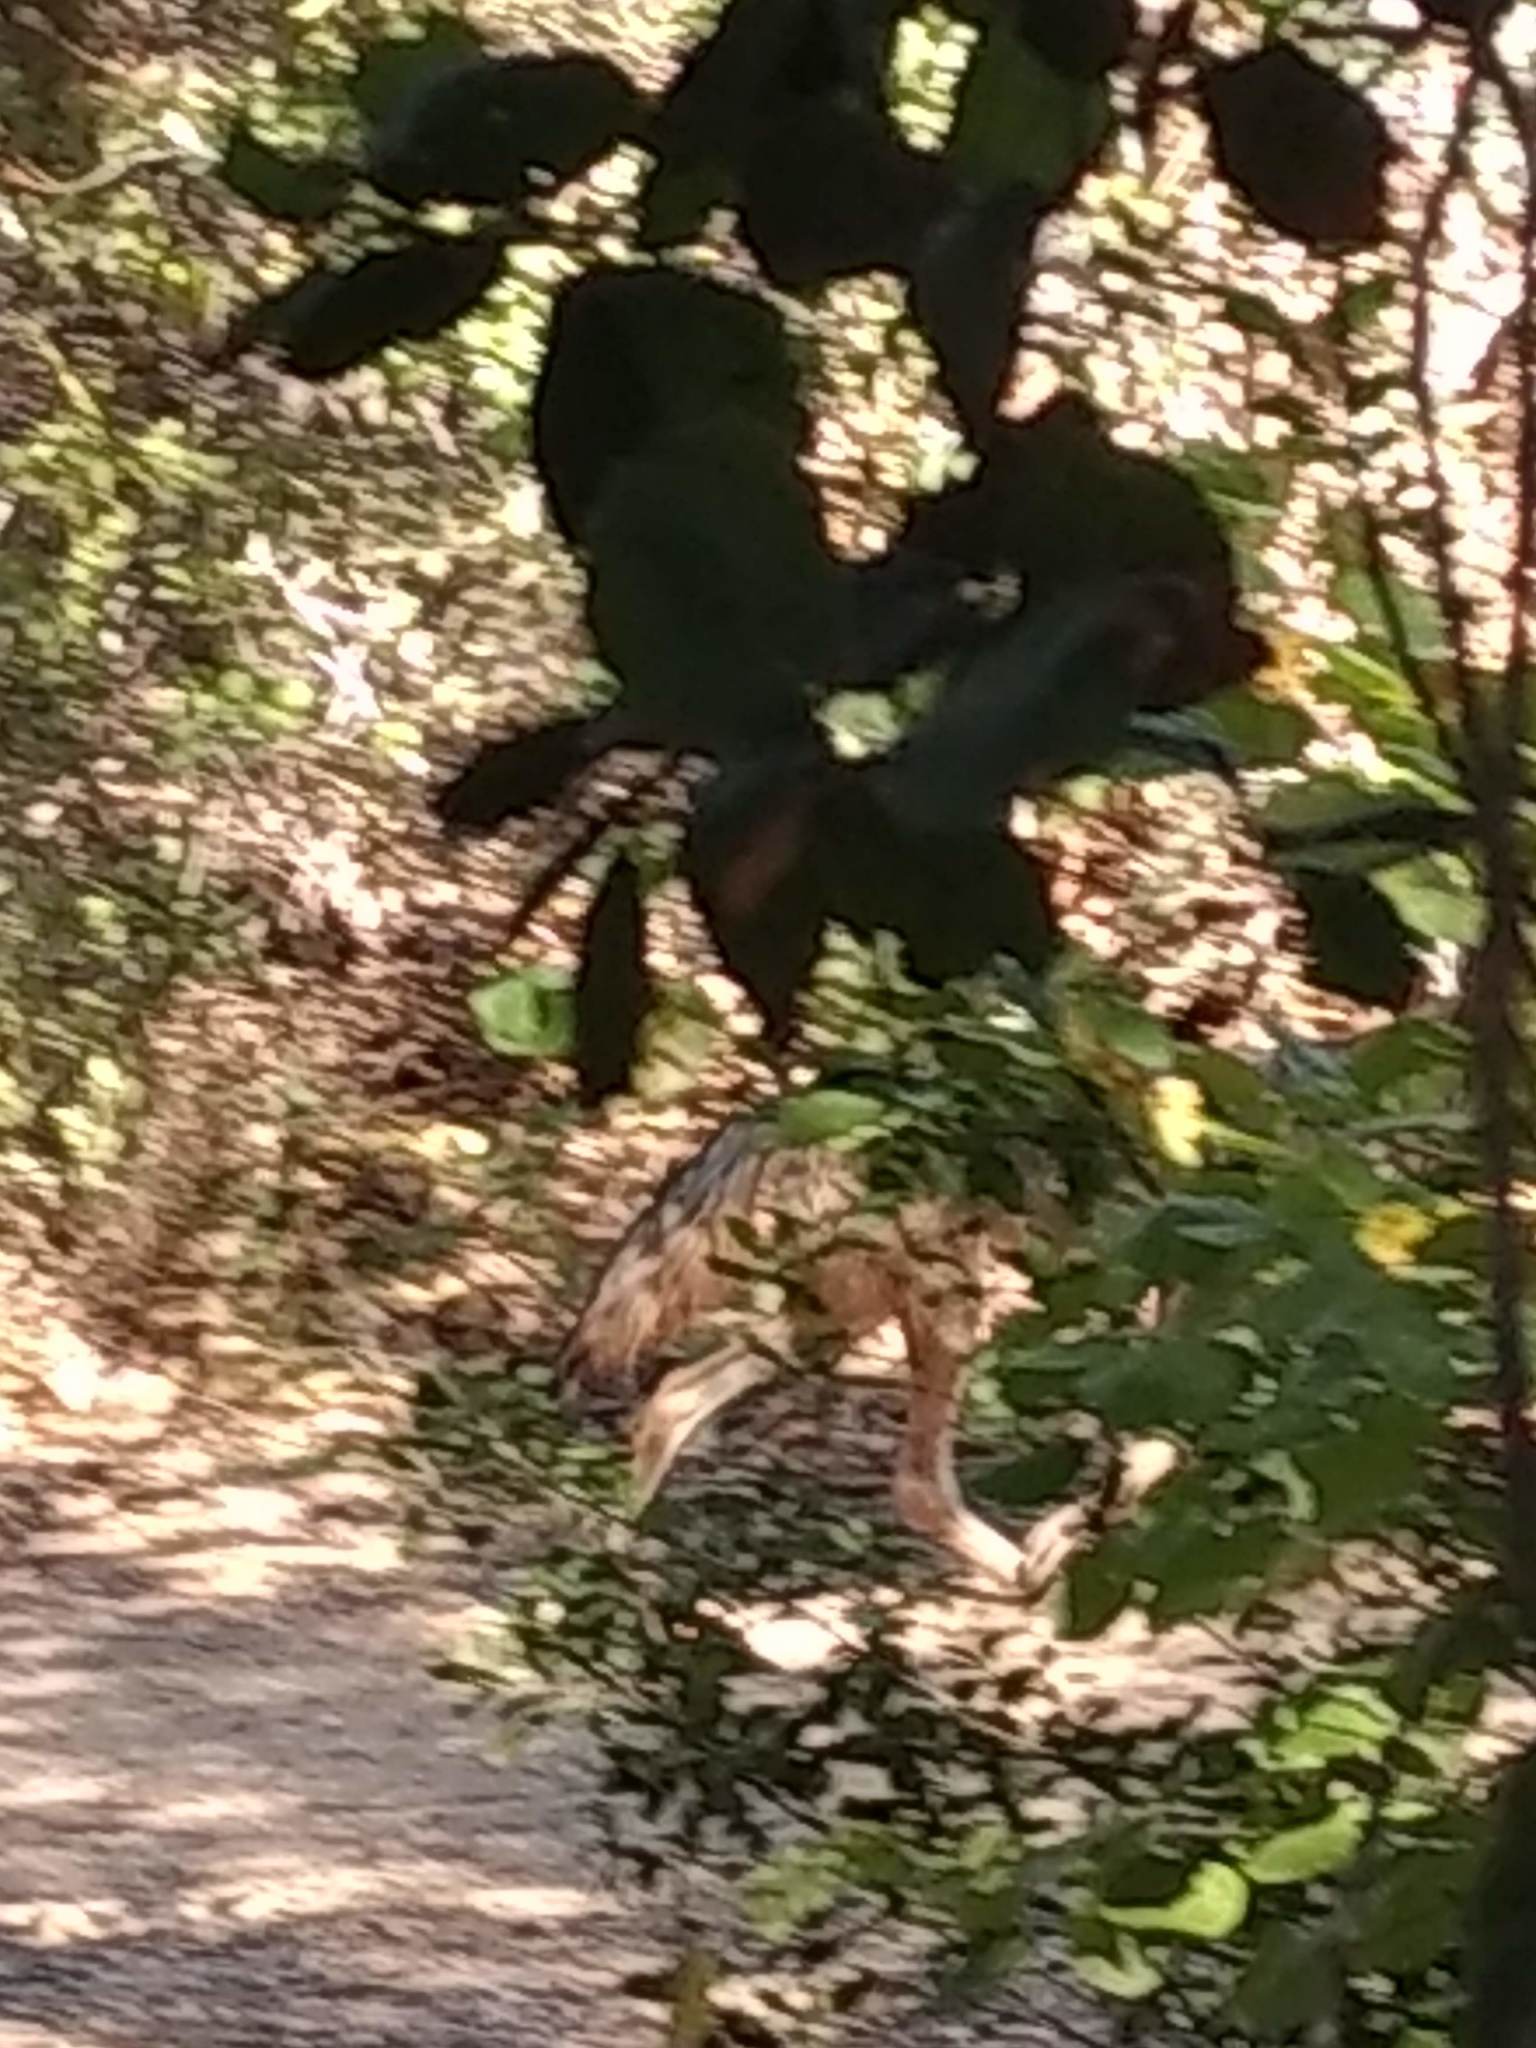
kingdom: Animalia
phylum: Chordata
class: Mammalia
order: Carnivora
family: Canidae
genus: Canis
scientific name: Canis latrans
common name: Coyote
